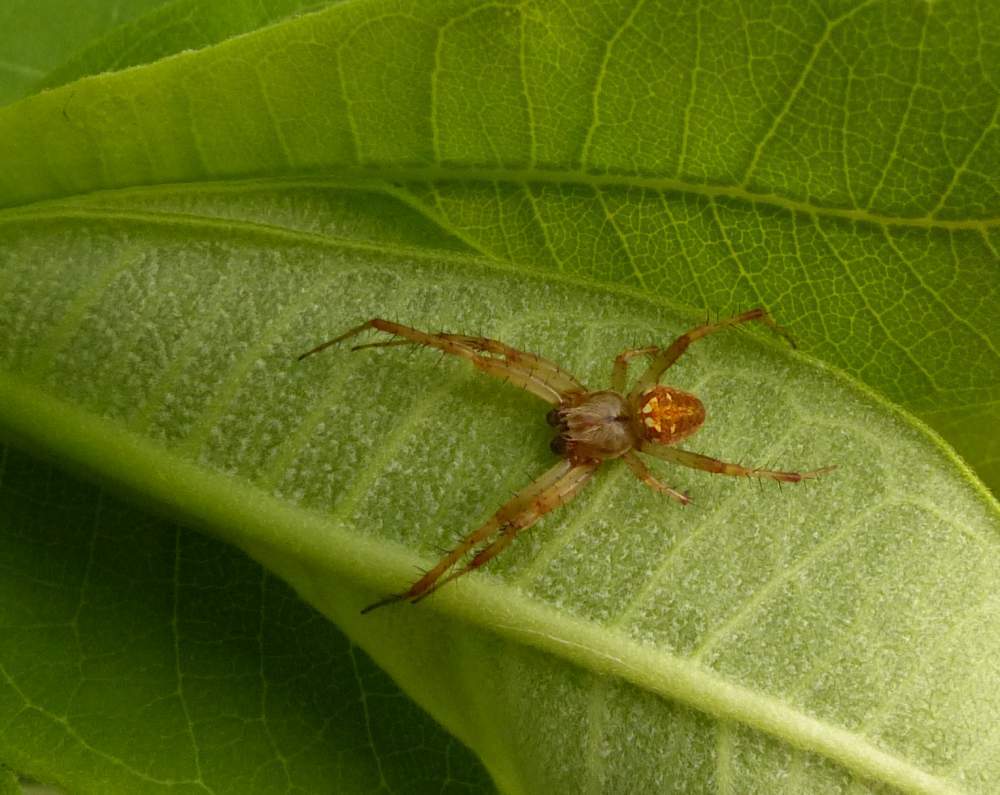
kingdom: Animalia
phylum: Arthropoda
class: Arachnida
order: Araneae
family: Araneidae
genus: Neoscona
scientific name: Neoscona arabesca
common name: Orb weavers
